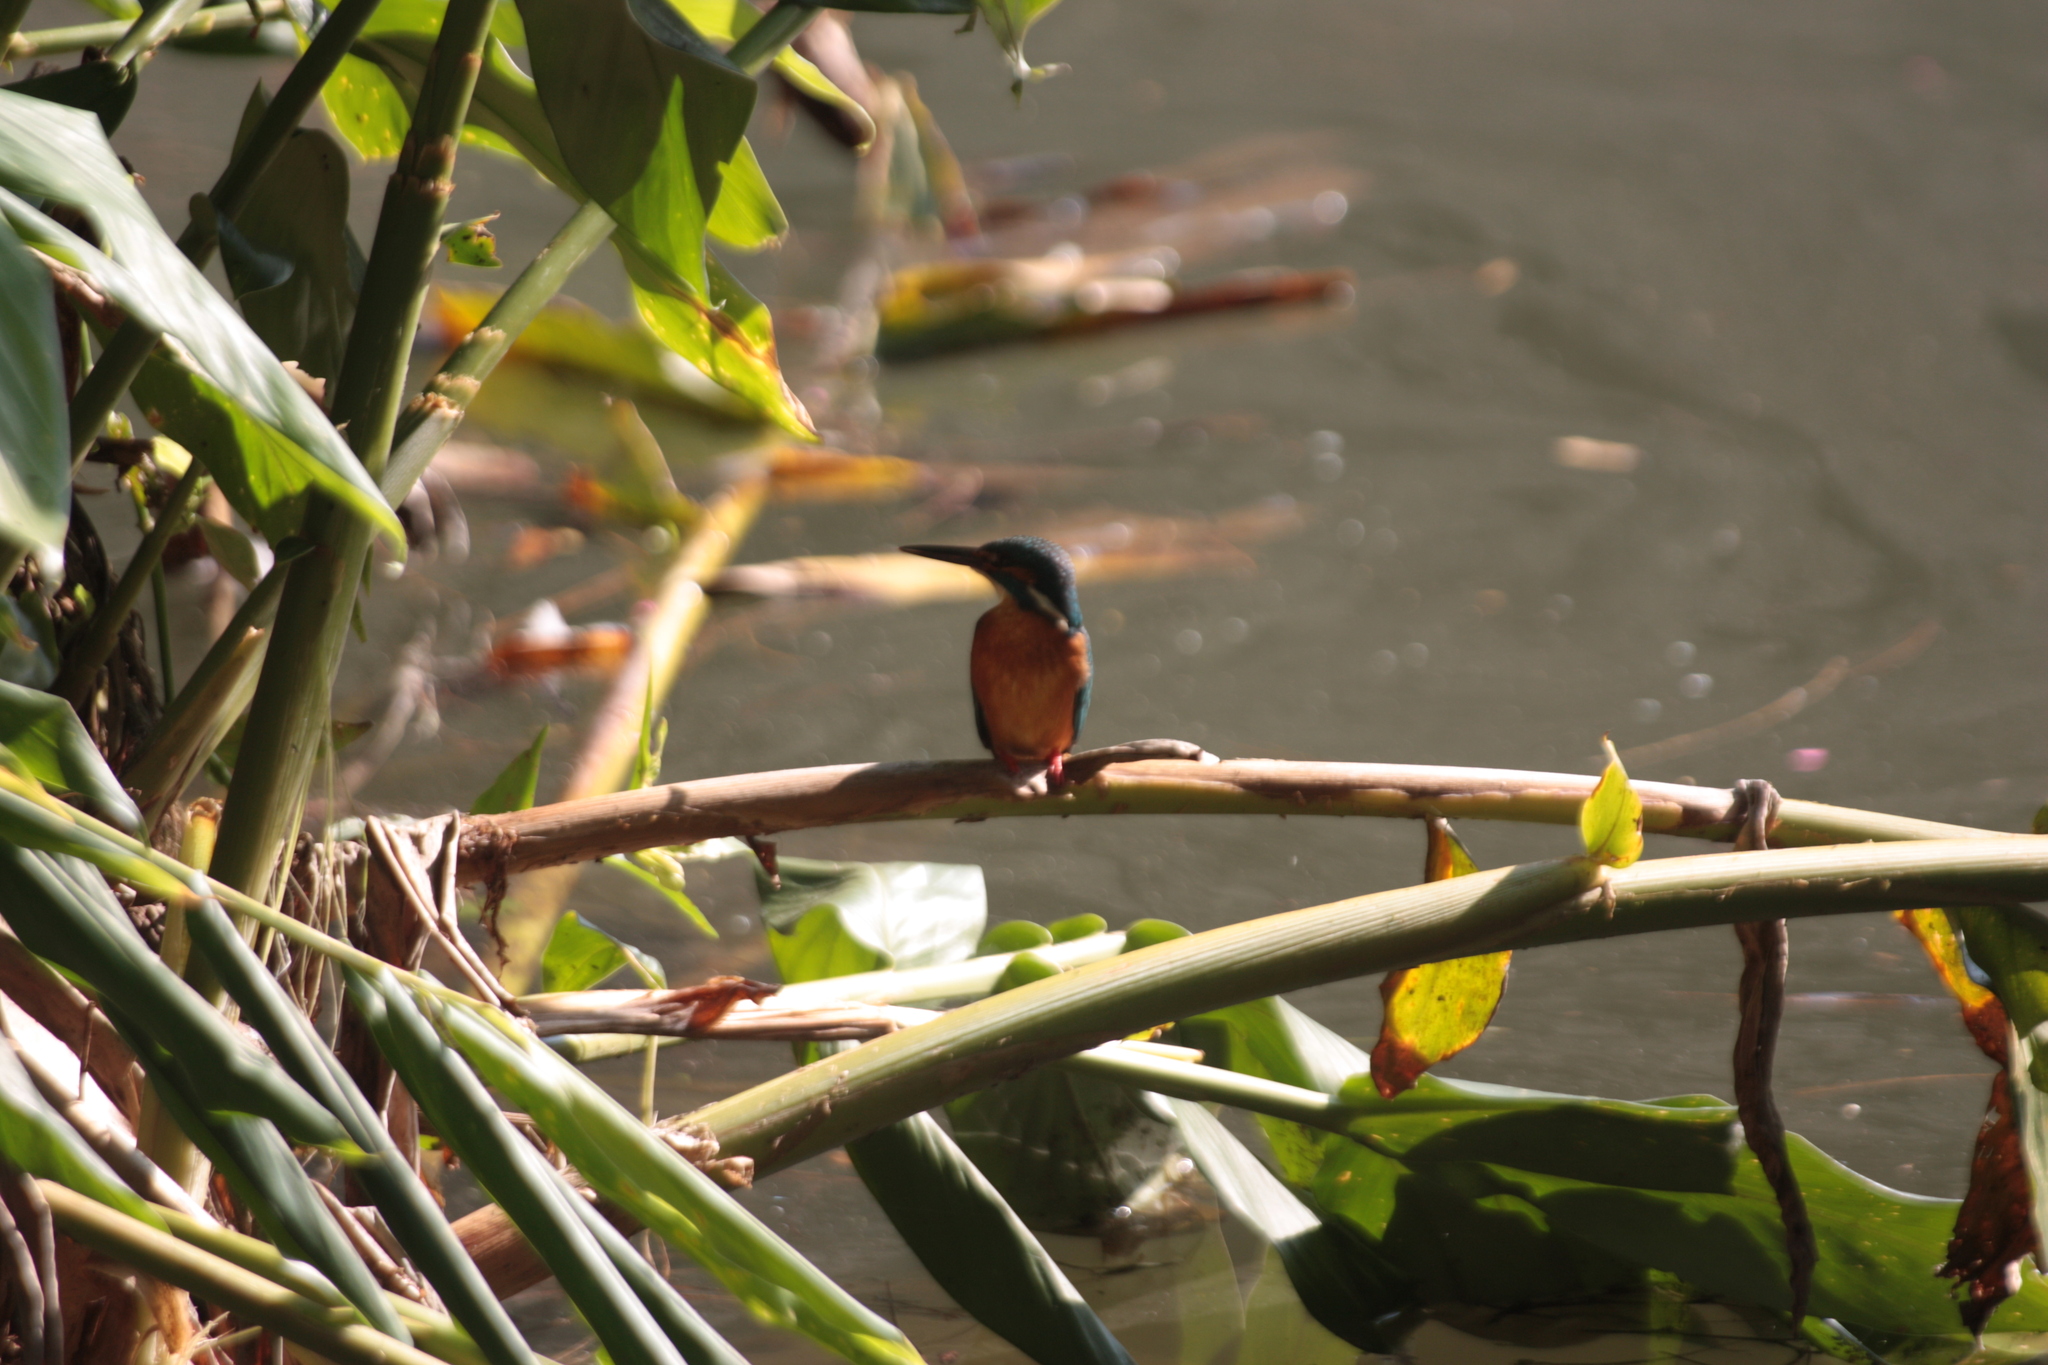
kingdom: Animalia
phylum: Chordata
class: Aves
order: Coraciiformes
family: Alcedinidae
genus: Alcedo
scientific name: Alcedo atthis
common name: Common kingfisher
